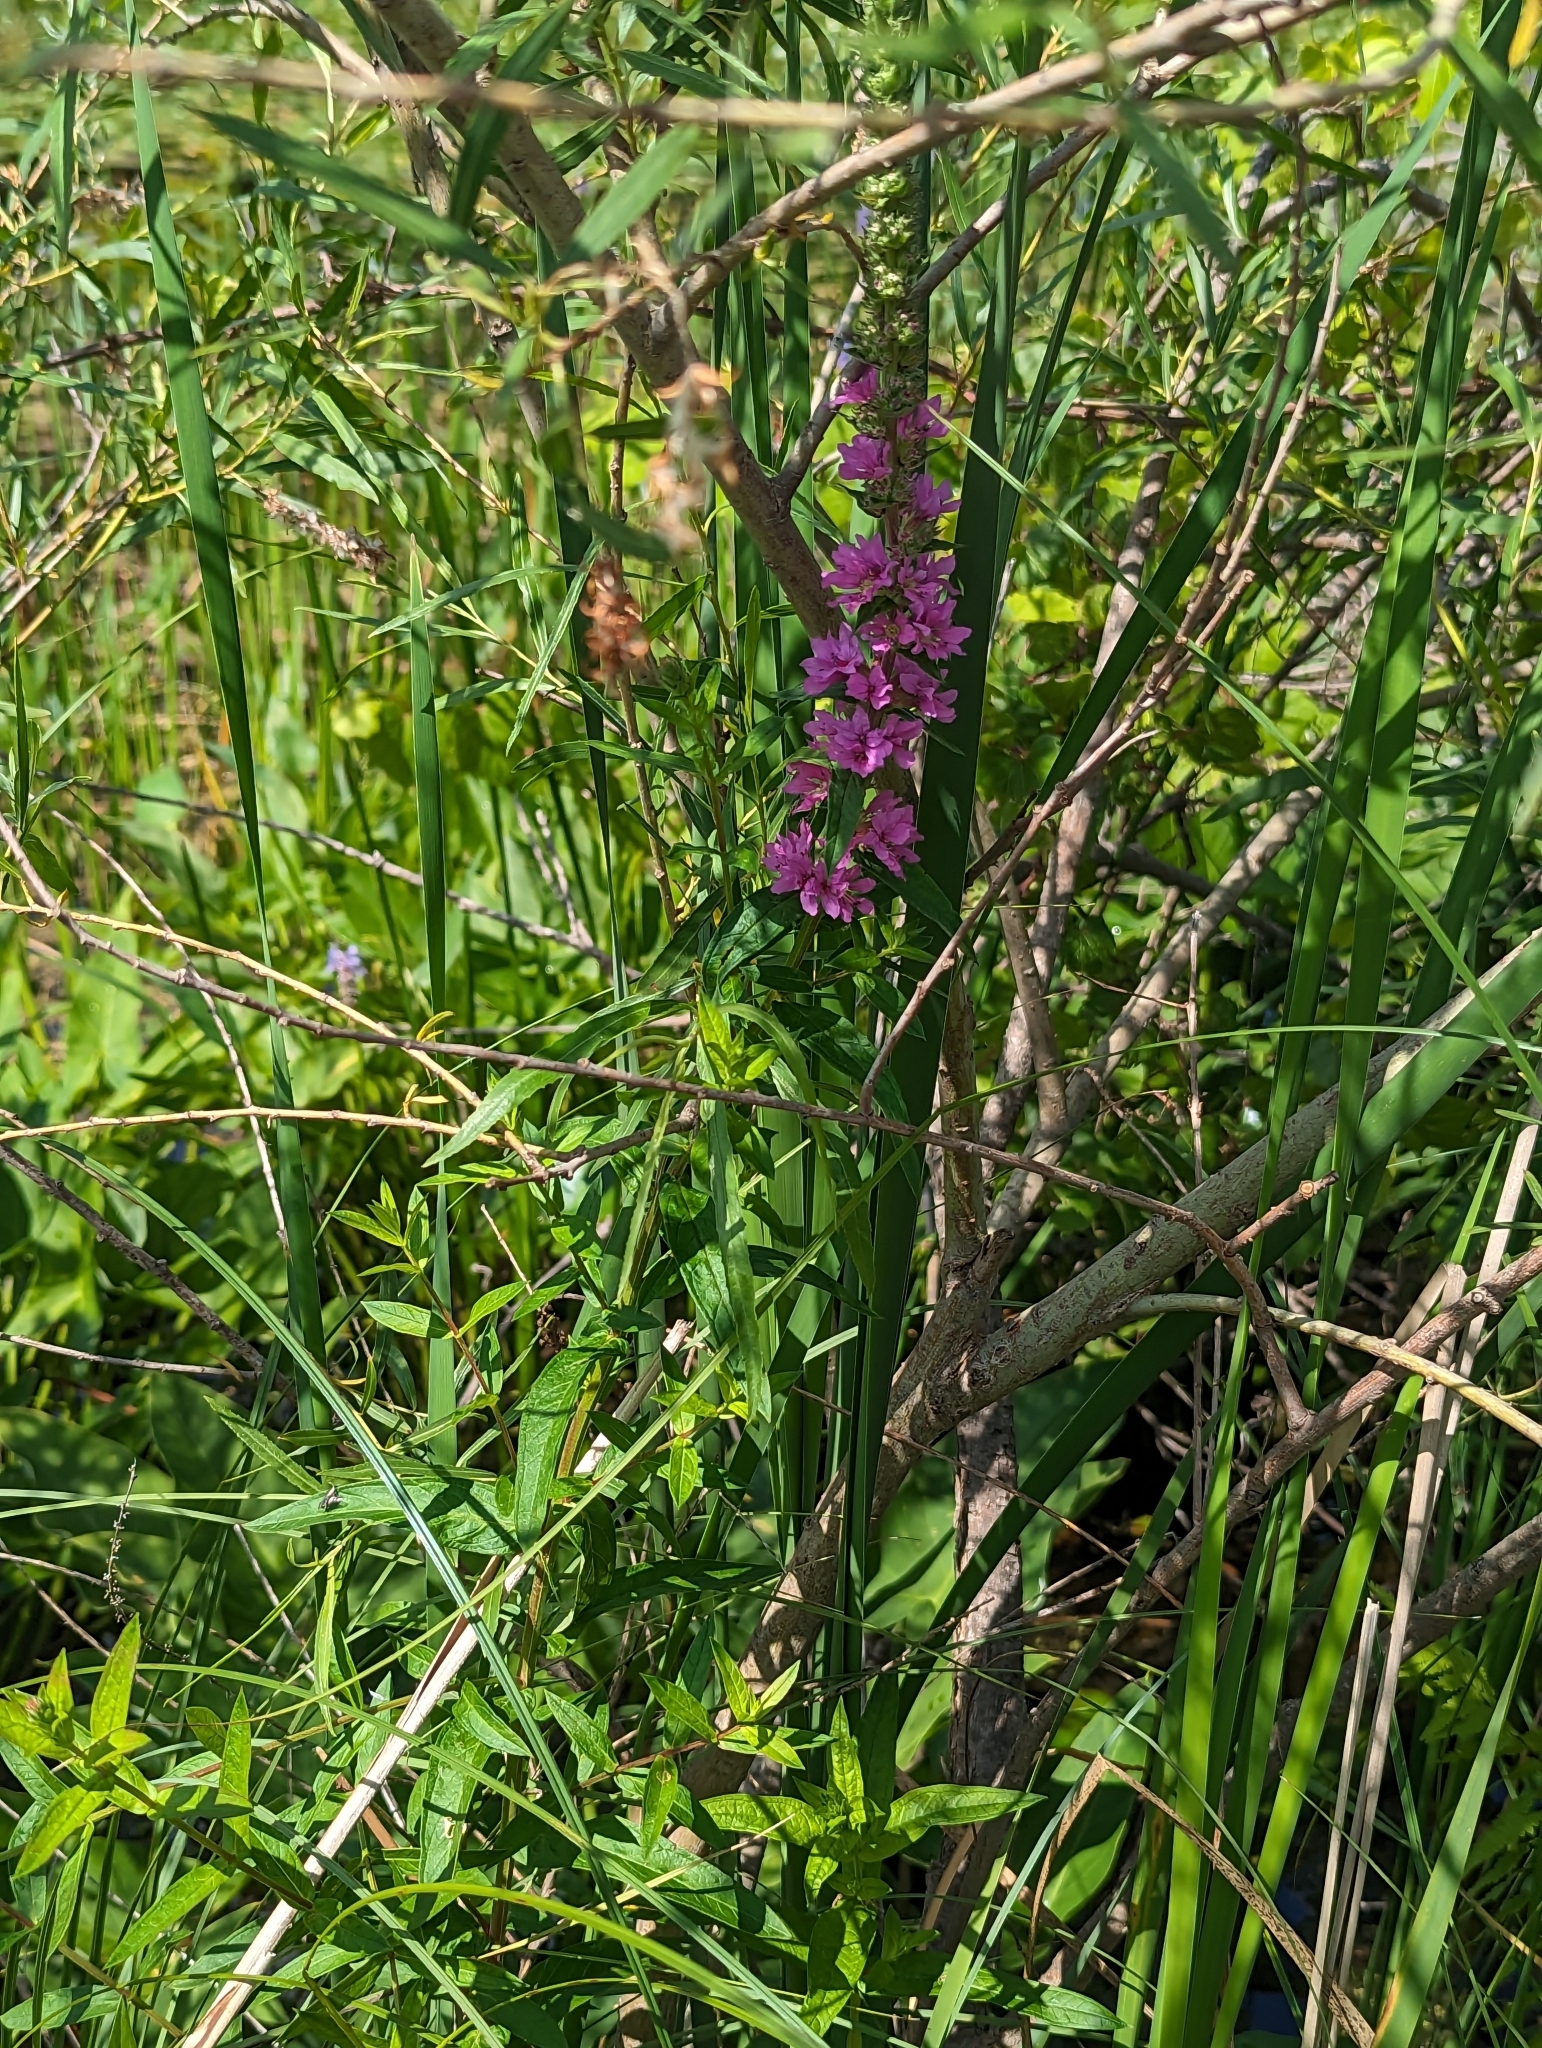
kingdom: Plantae
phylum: Tracheophyta
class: Magnoliopsida
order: Myrtales
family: Lythraceae
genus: Lythrum
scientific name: Lythrum salicaria
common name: Purple loosestrife
